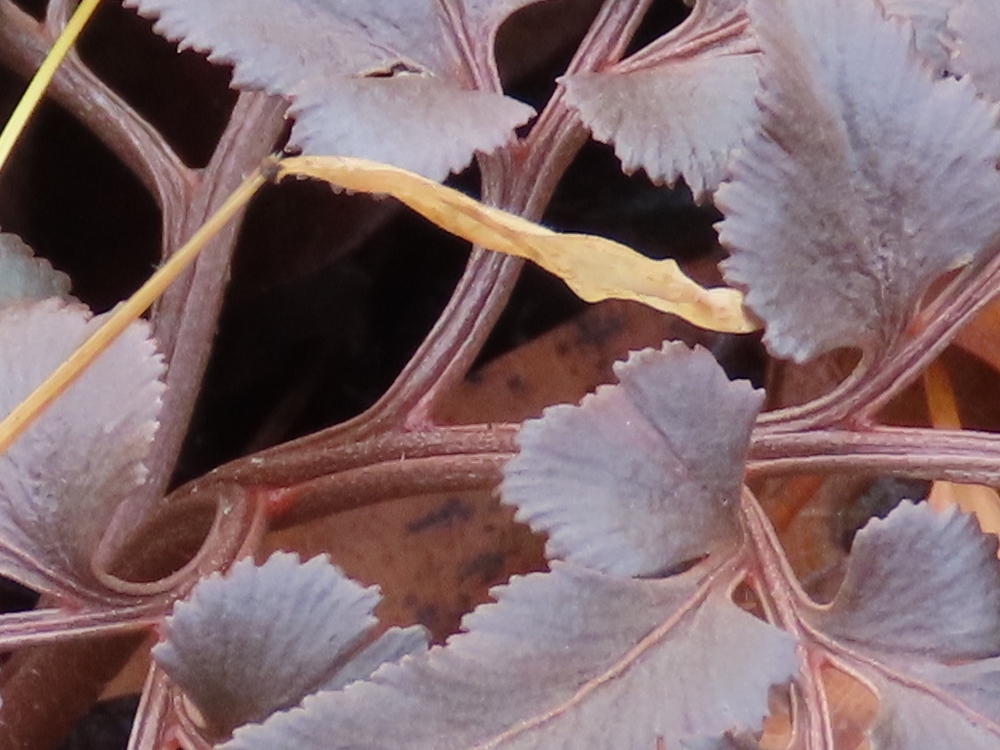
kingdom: Plantae
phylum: Tracheophyta
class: Polypodiopsida
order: Ophioglossales
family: Ophioglossaceae
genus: Sceptridium
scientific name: Sceptridium dissectum
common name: Cut-leaved grapefern
